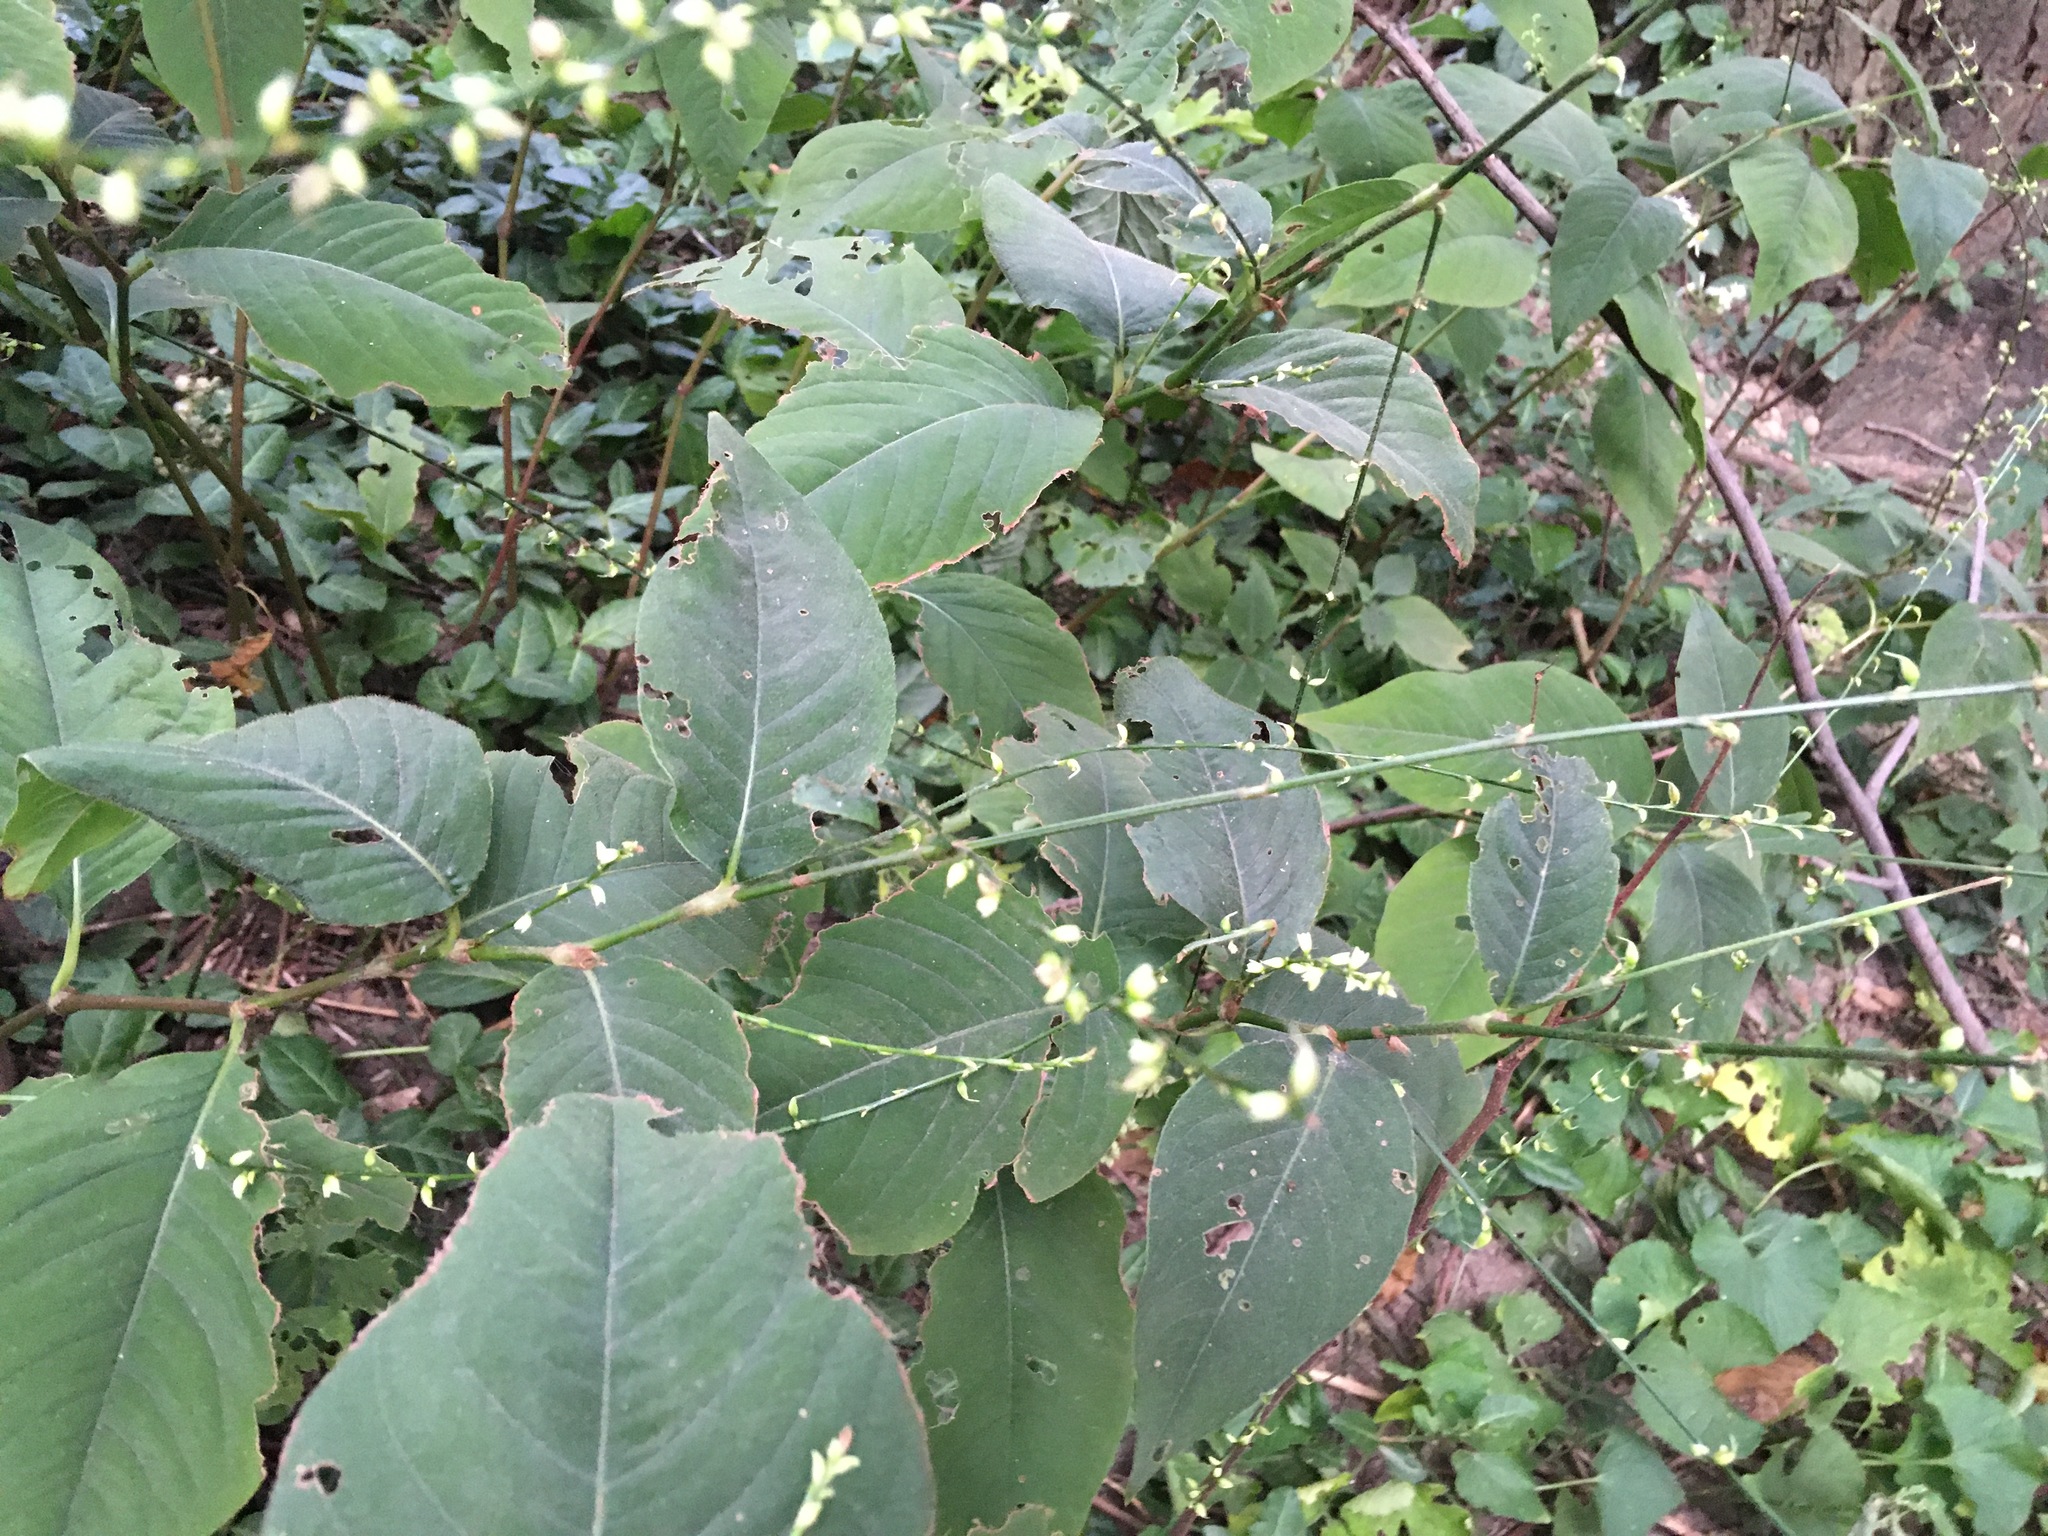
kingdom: Plantae
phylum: Tracheophyta
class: Magnoliopsida
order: Caryophyllales
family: Polygonaceae
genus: Persicaria
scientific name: Persicaria virginiana
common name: Jumpseed
